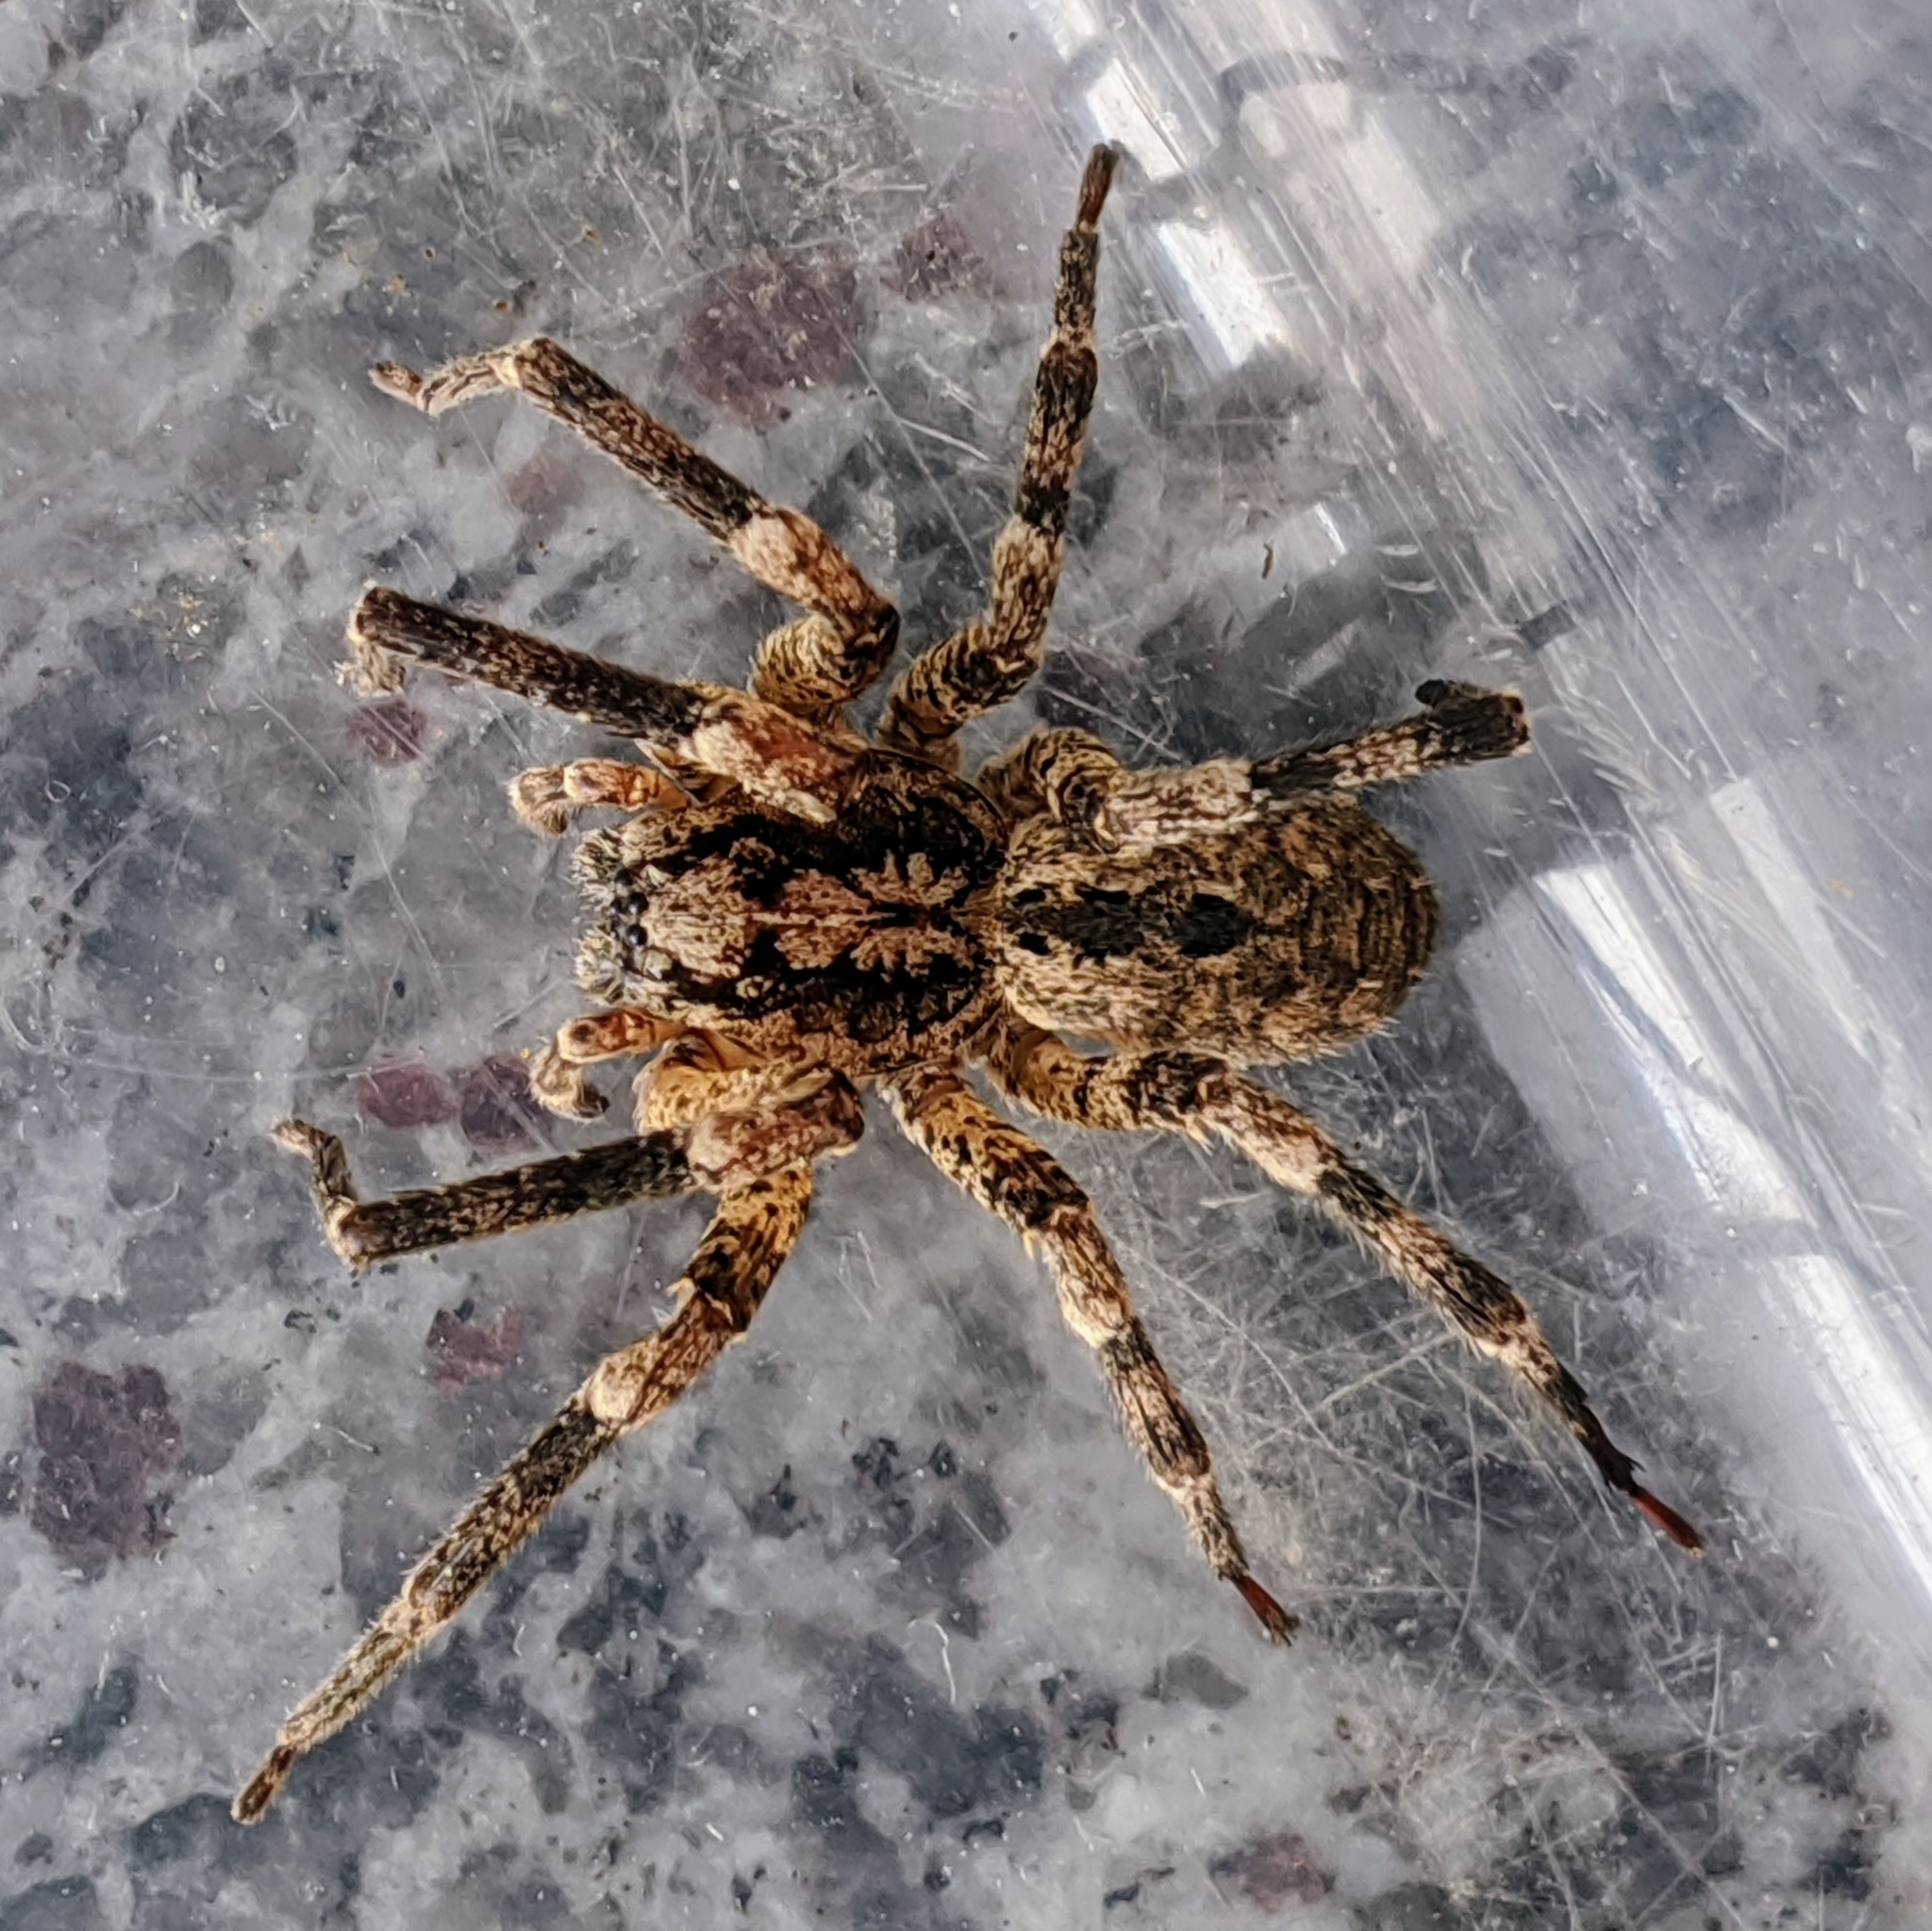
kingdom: Animalia
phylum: Arthropoda
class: Arachnida
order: Araneae
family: Zoropsidae
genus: Zoropsis
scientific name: Zoropsis spinimana
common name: Zoropsid spider
